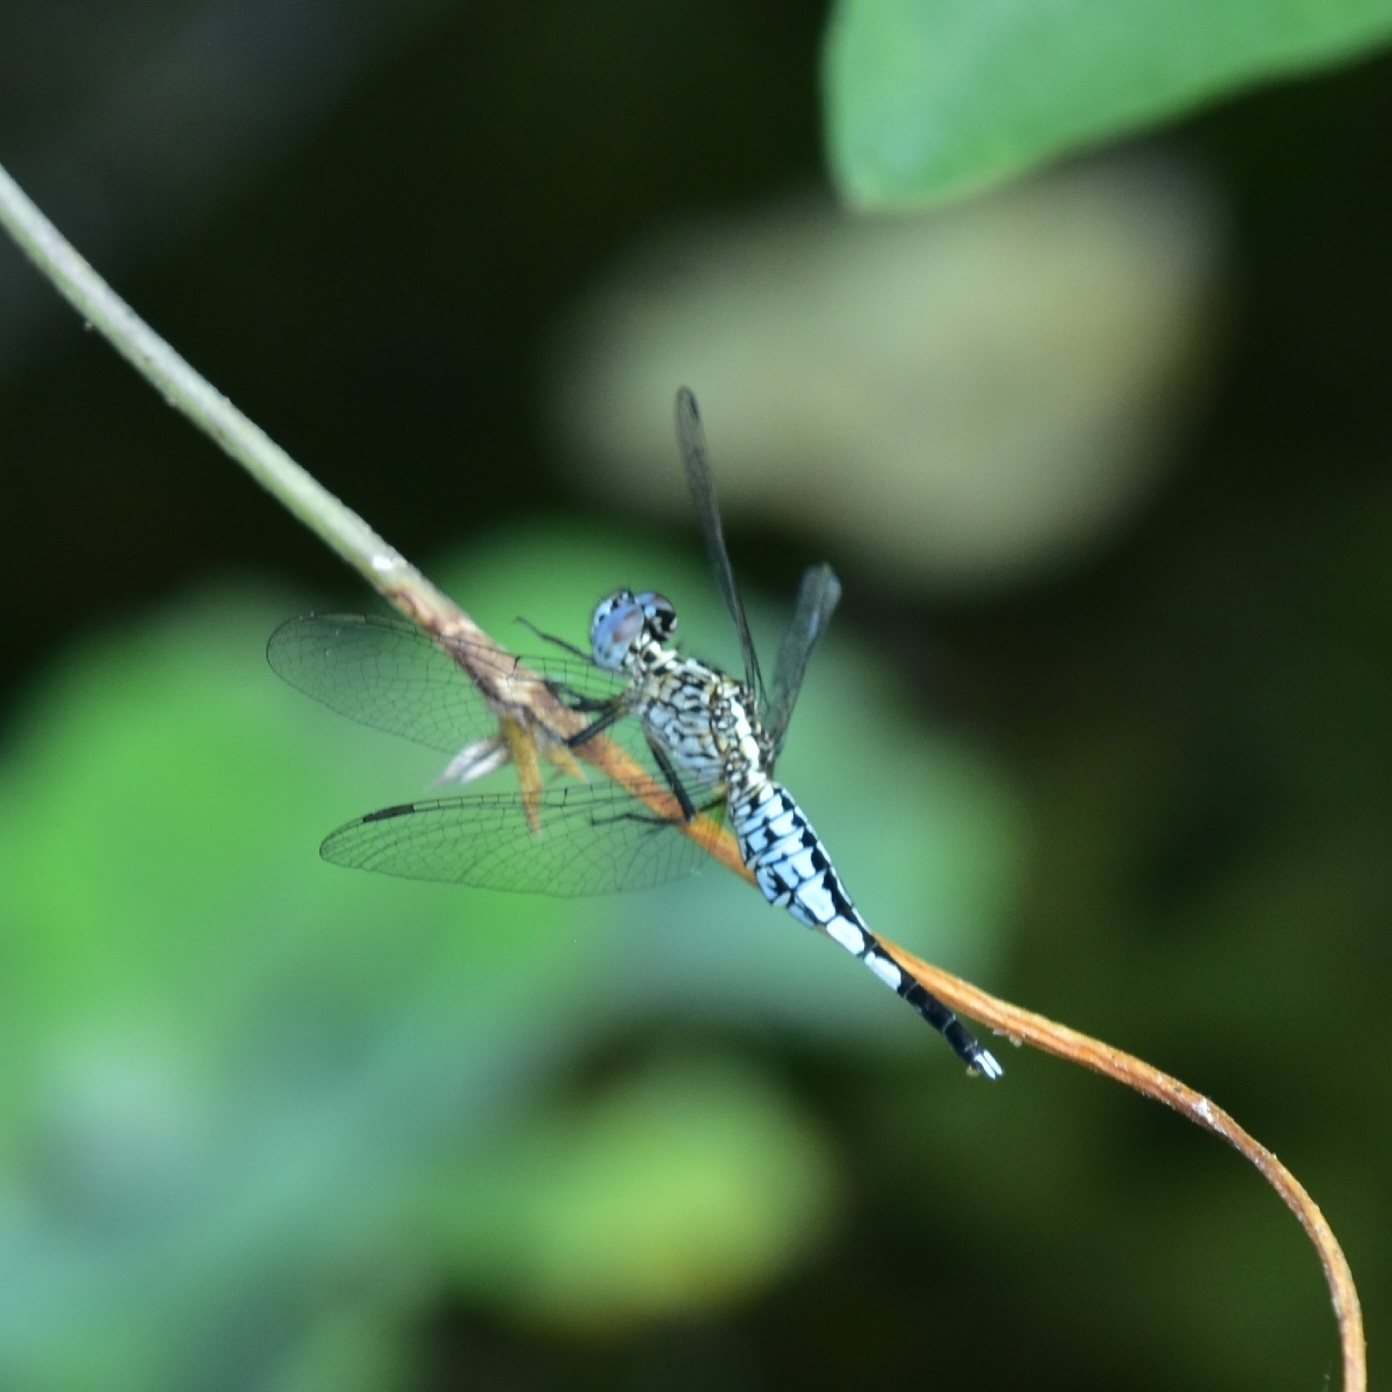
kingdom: Animalia
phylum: Arthropoda
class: Insecta
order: Odonata
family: Libellulidae
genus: Acisoma
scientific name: Acisoma panorpoides
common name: Asian pintail
